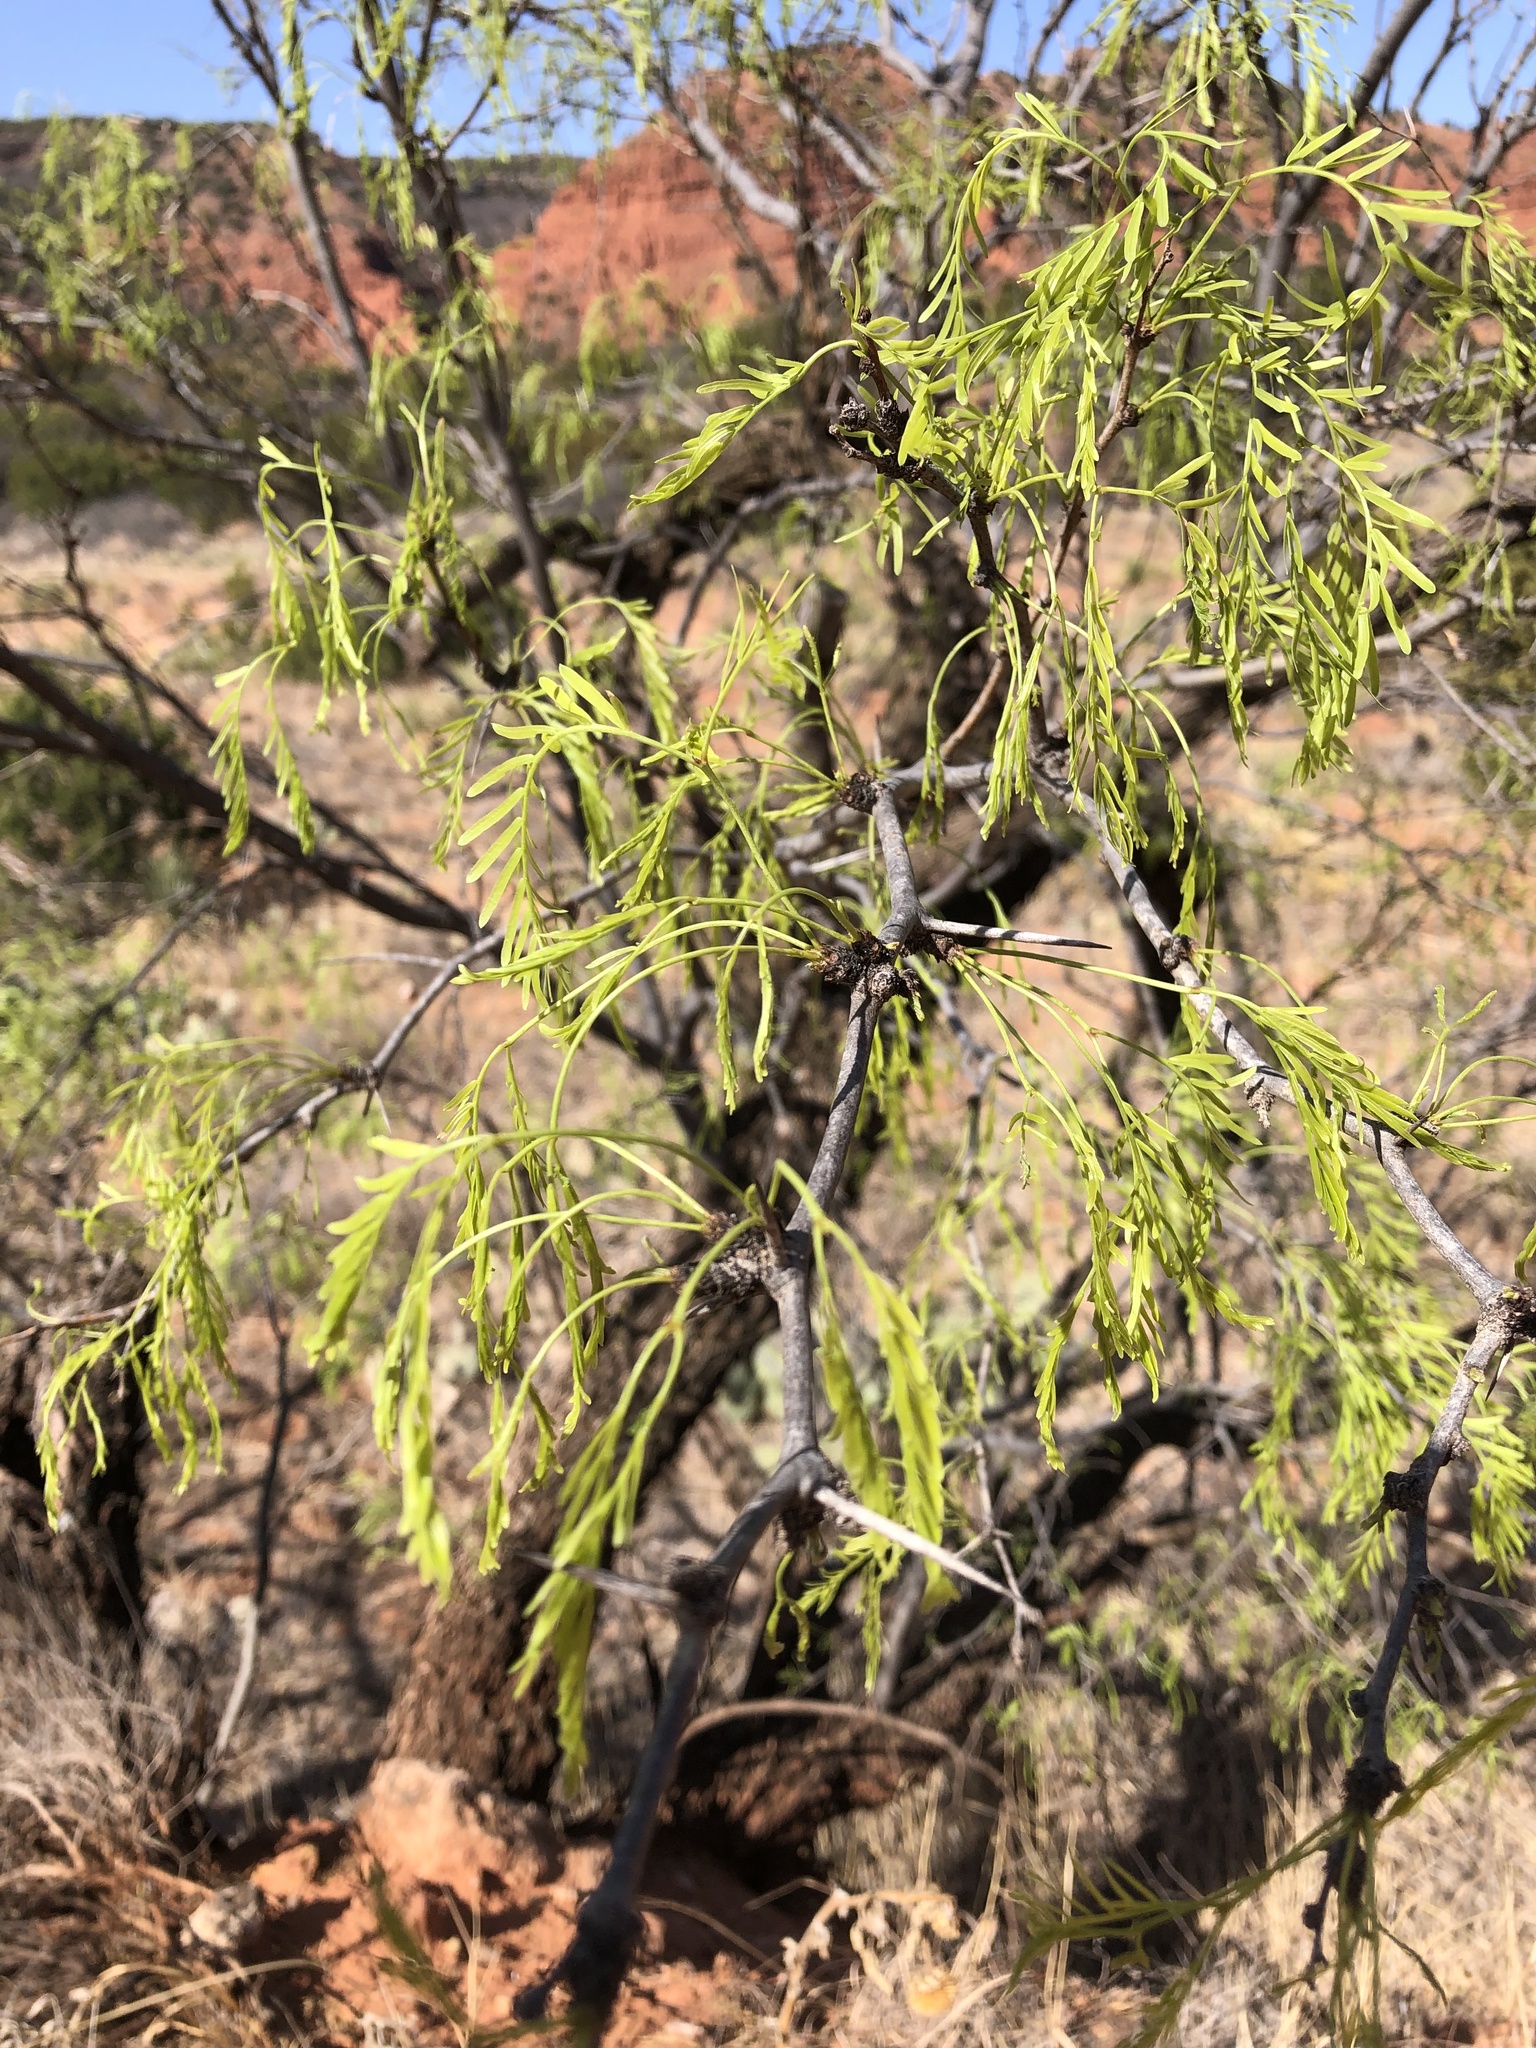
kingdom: Plantae
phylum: Tracheophyta
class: Magnoliopsida
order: Fabales
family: Fabaceae
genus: Prosopis
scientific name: Prosopis glandulosa
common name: Honey mesquite
